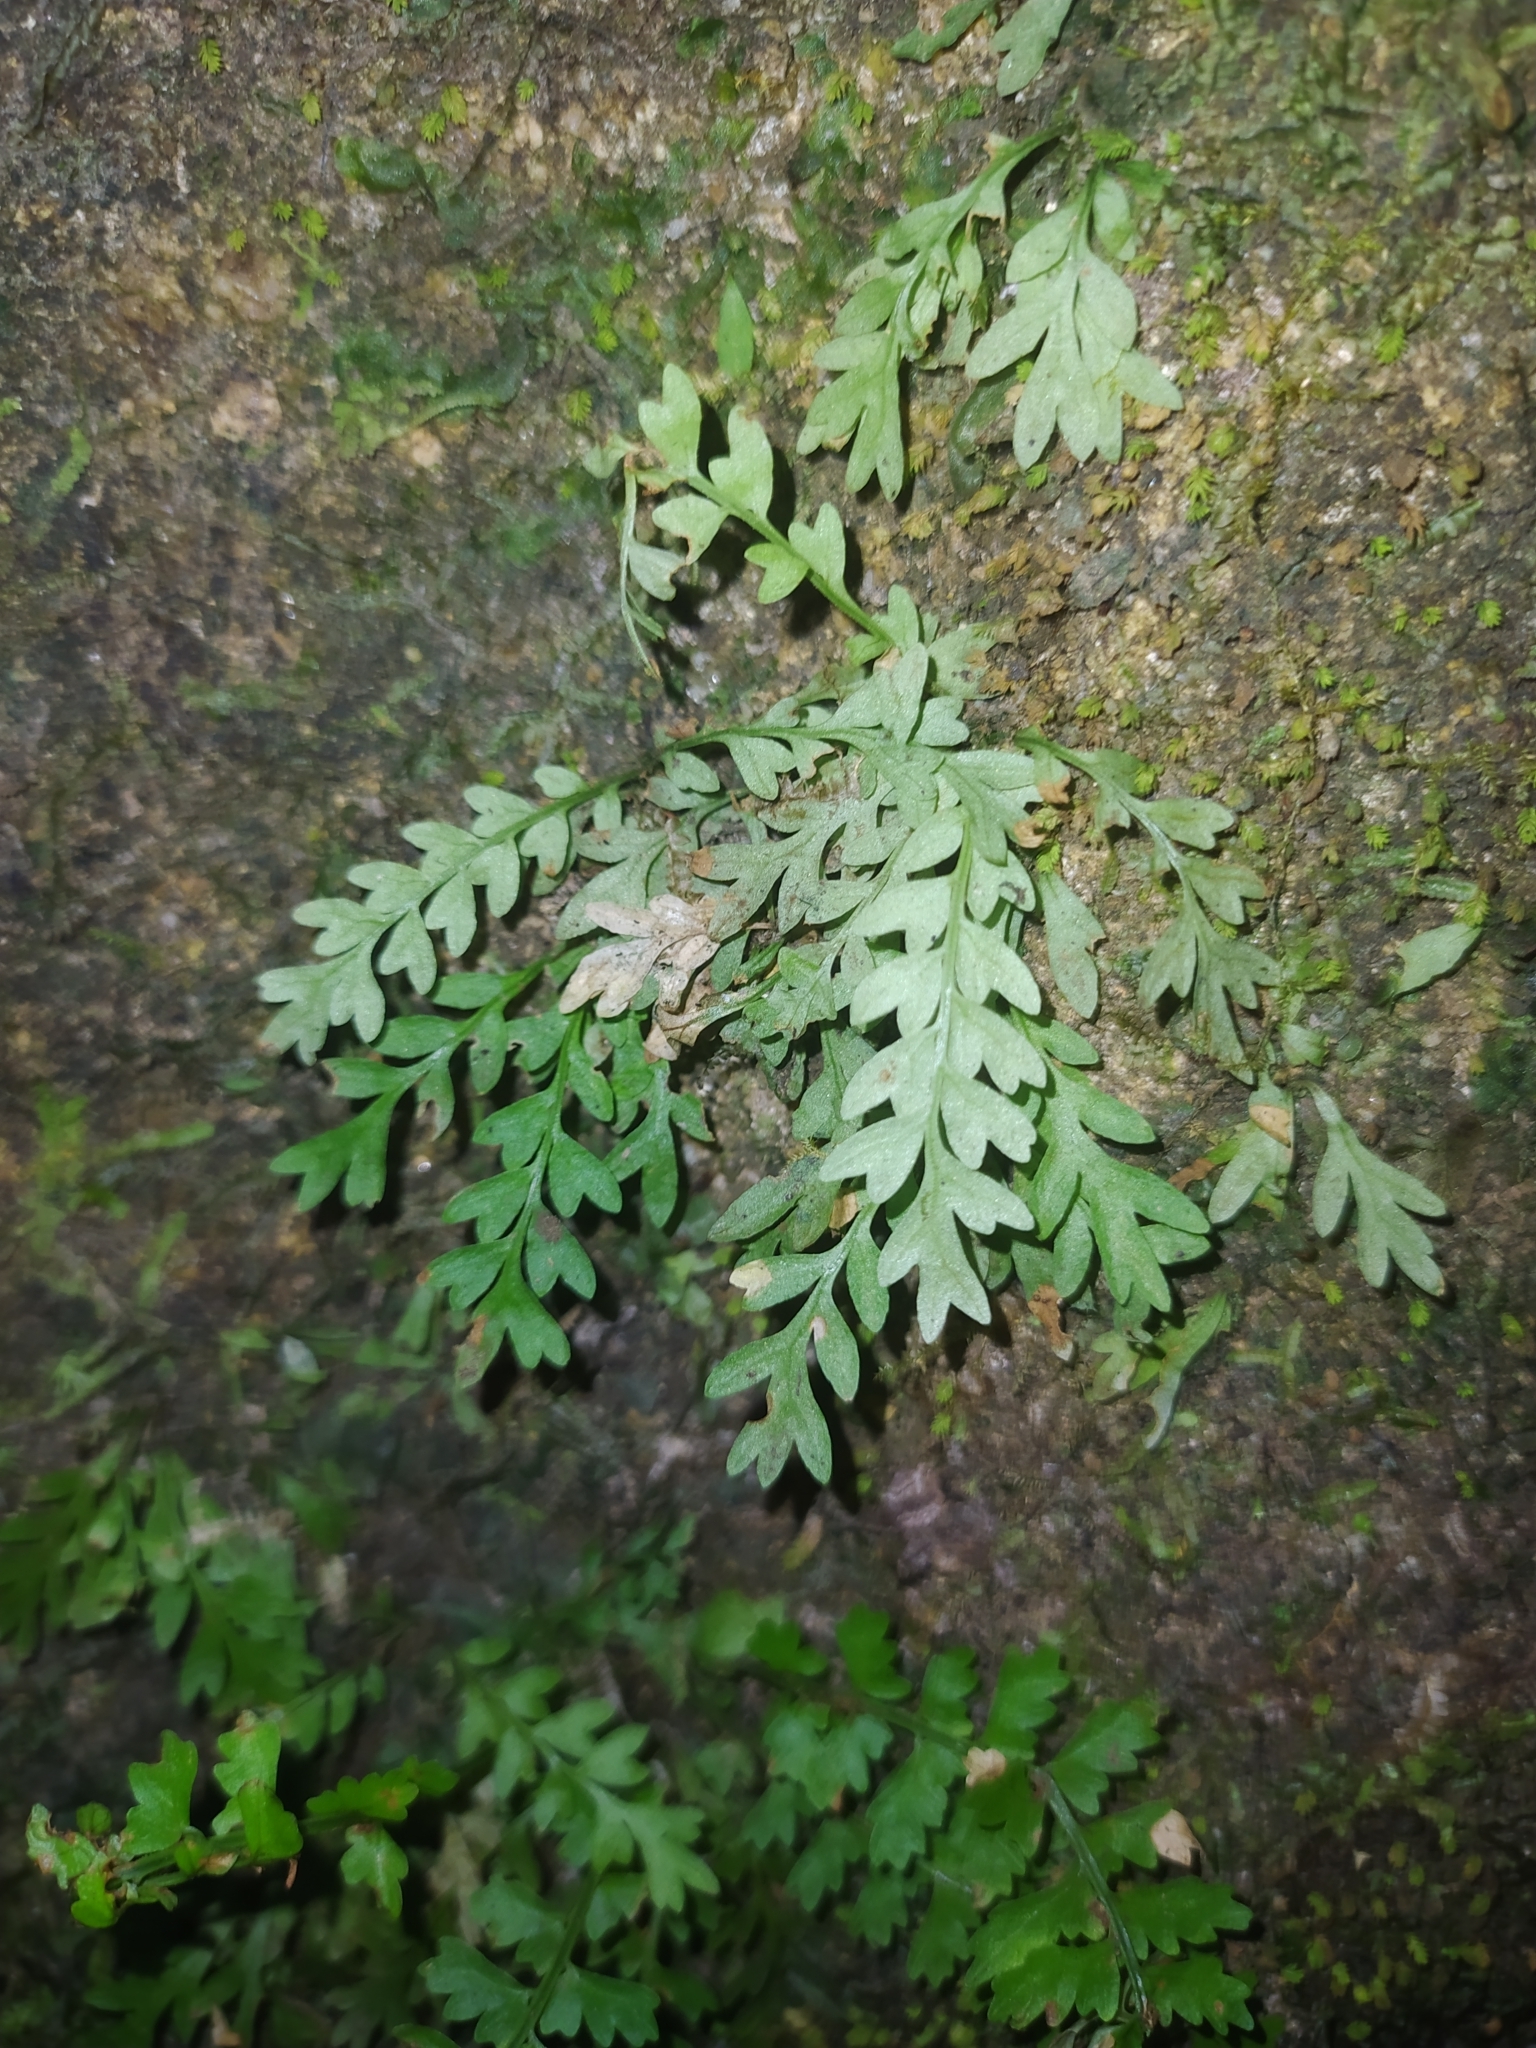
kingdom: Plantae
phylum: Tracheophyta
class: Polypodiopsida
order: Polypodiales
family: Aspleniaceae
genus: Asplenium
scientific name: Asplenium
